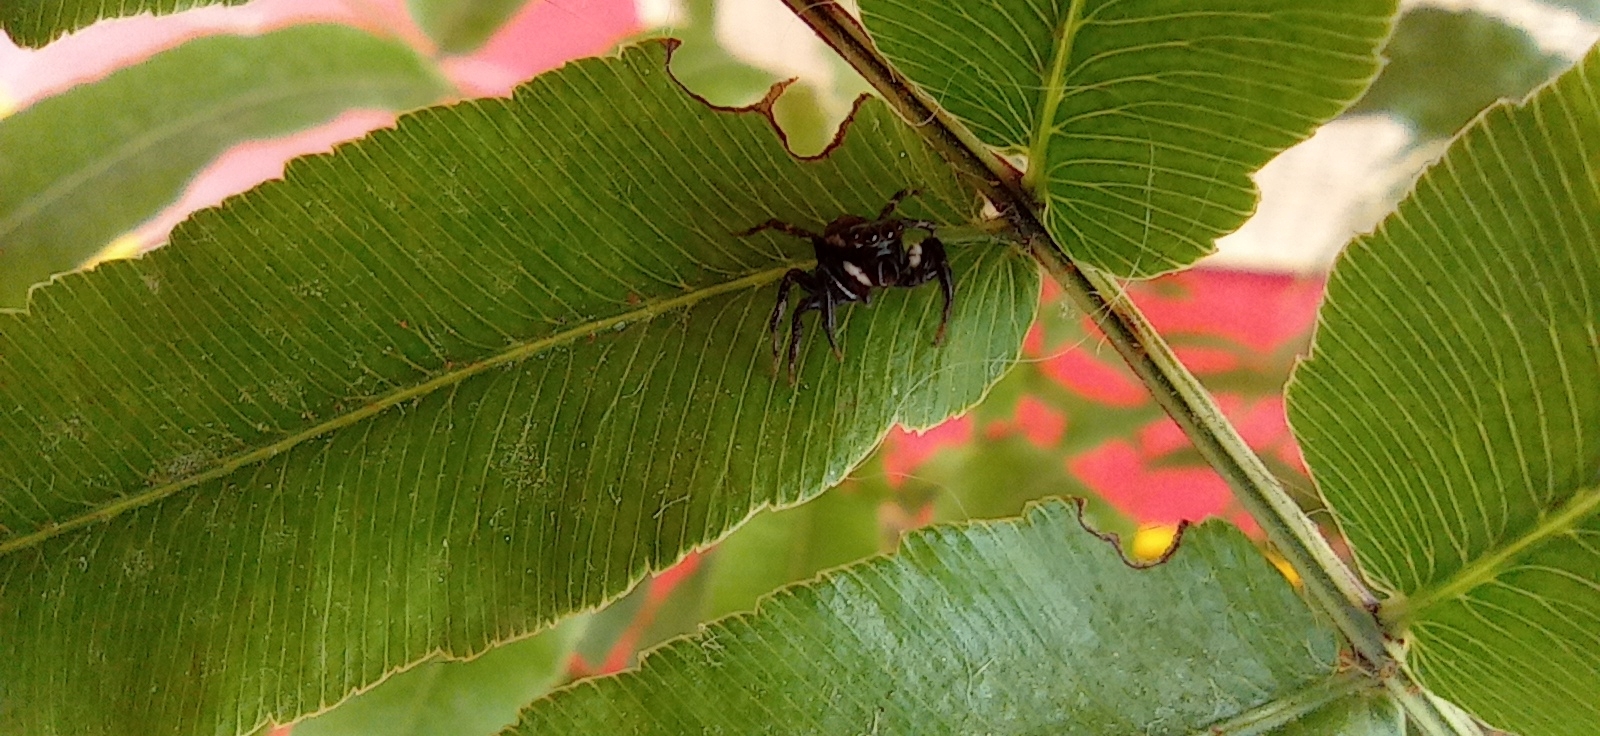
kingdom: Animalia
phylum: Arthropoda
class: Arachnida
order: Araneae
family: Salticidae
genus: Hasarius
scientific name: Hasarius adansoni
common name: Jumping spider
